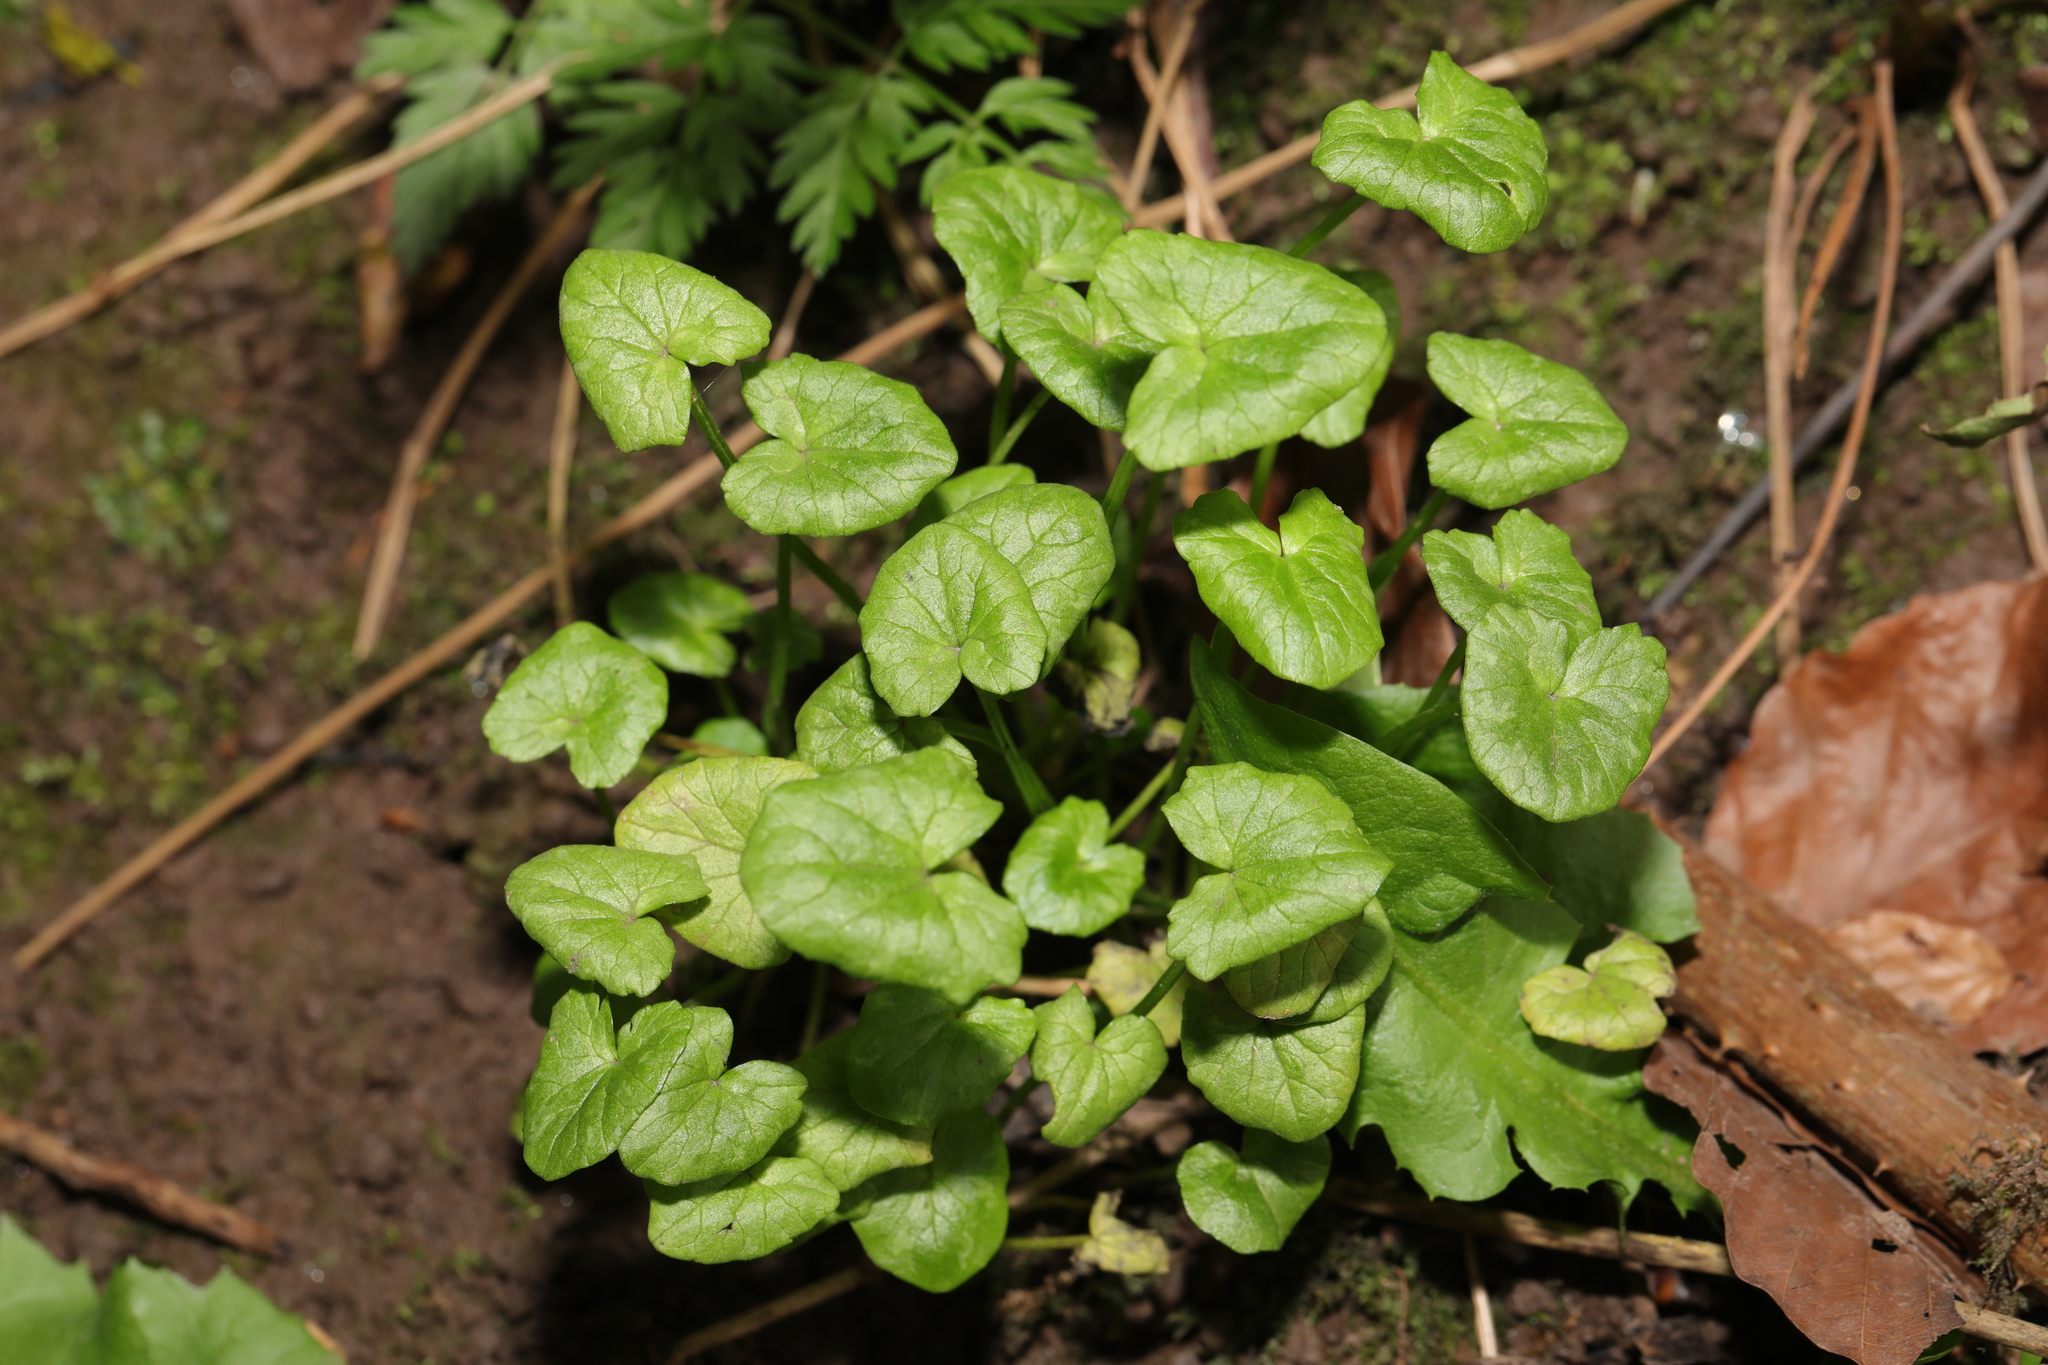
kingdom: Plantae
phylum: Tracheophyta
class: Magnoliopsida
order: Ranunculales
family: Ranunculaceae
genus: Ficaria
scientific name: Ficaria verna
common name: Lesser celandine
